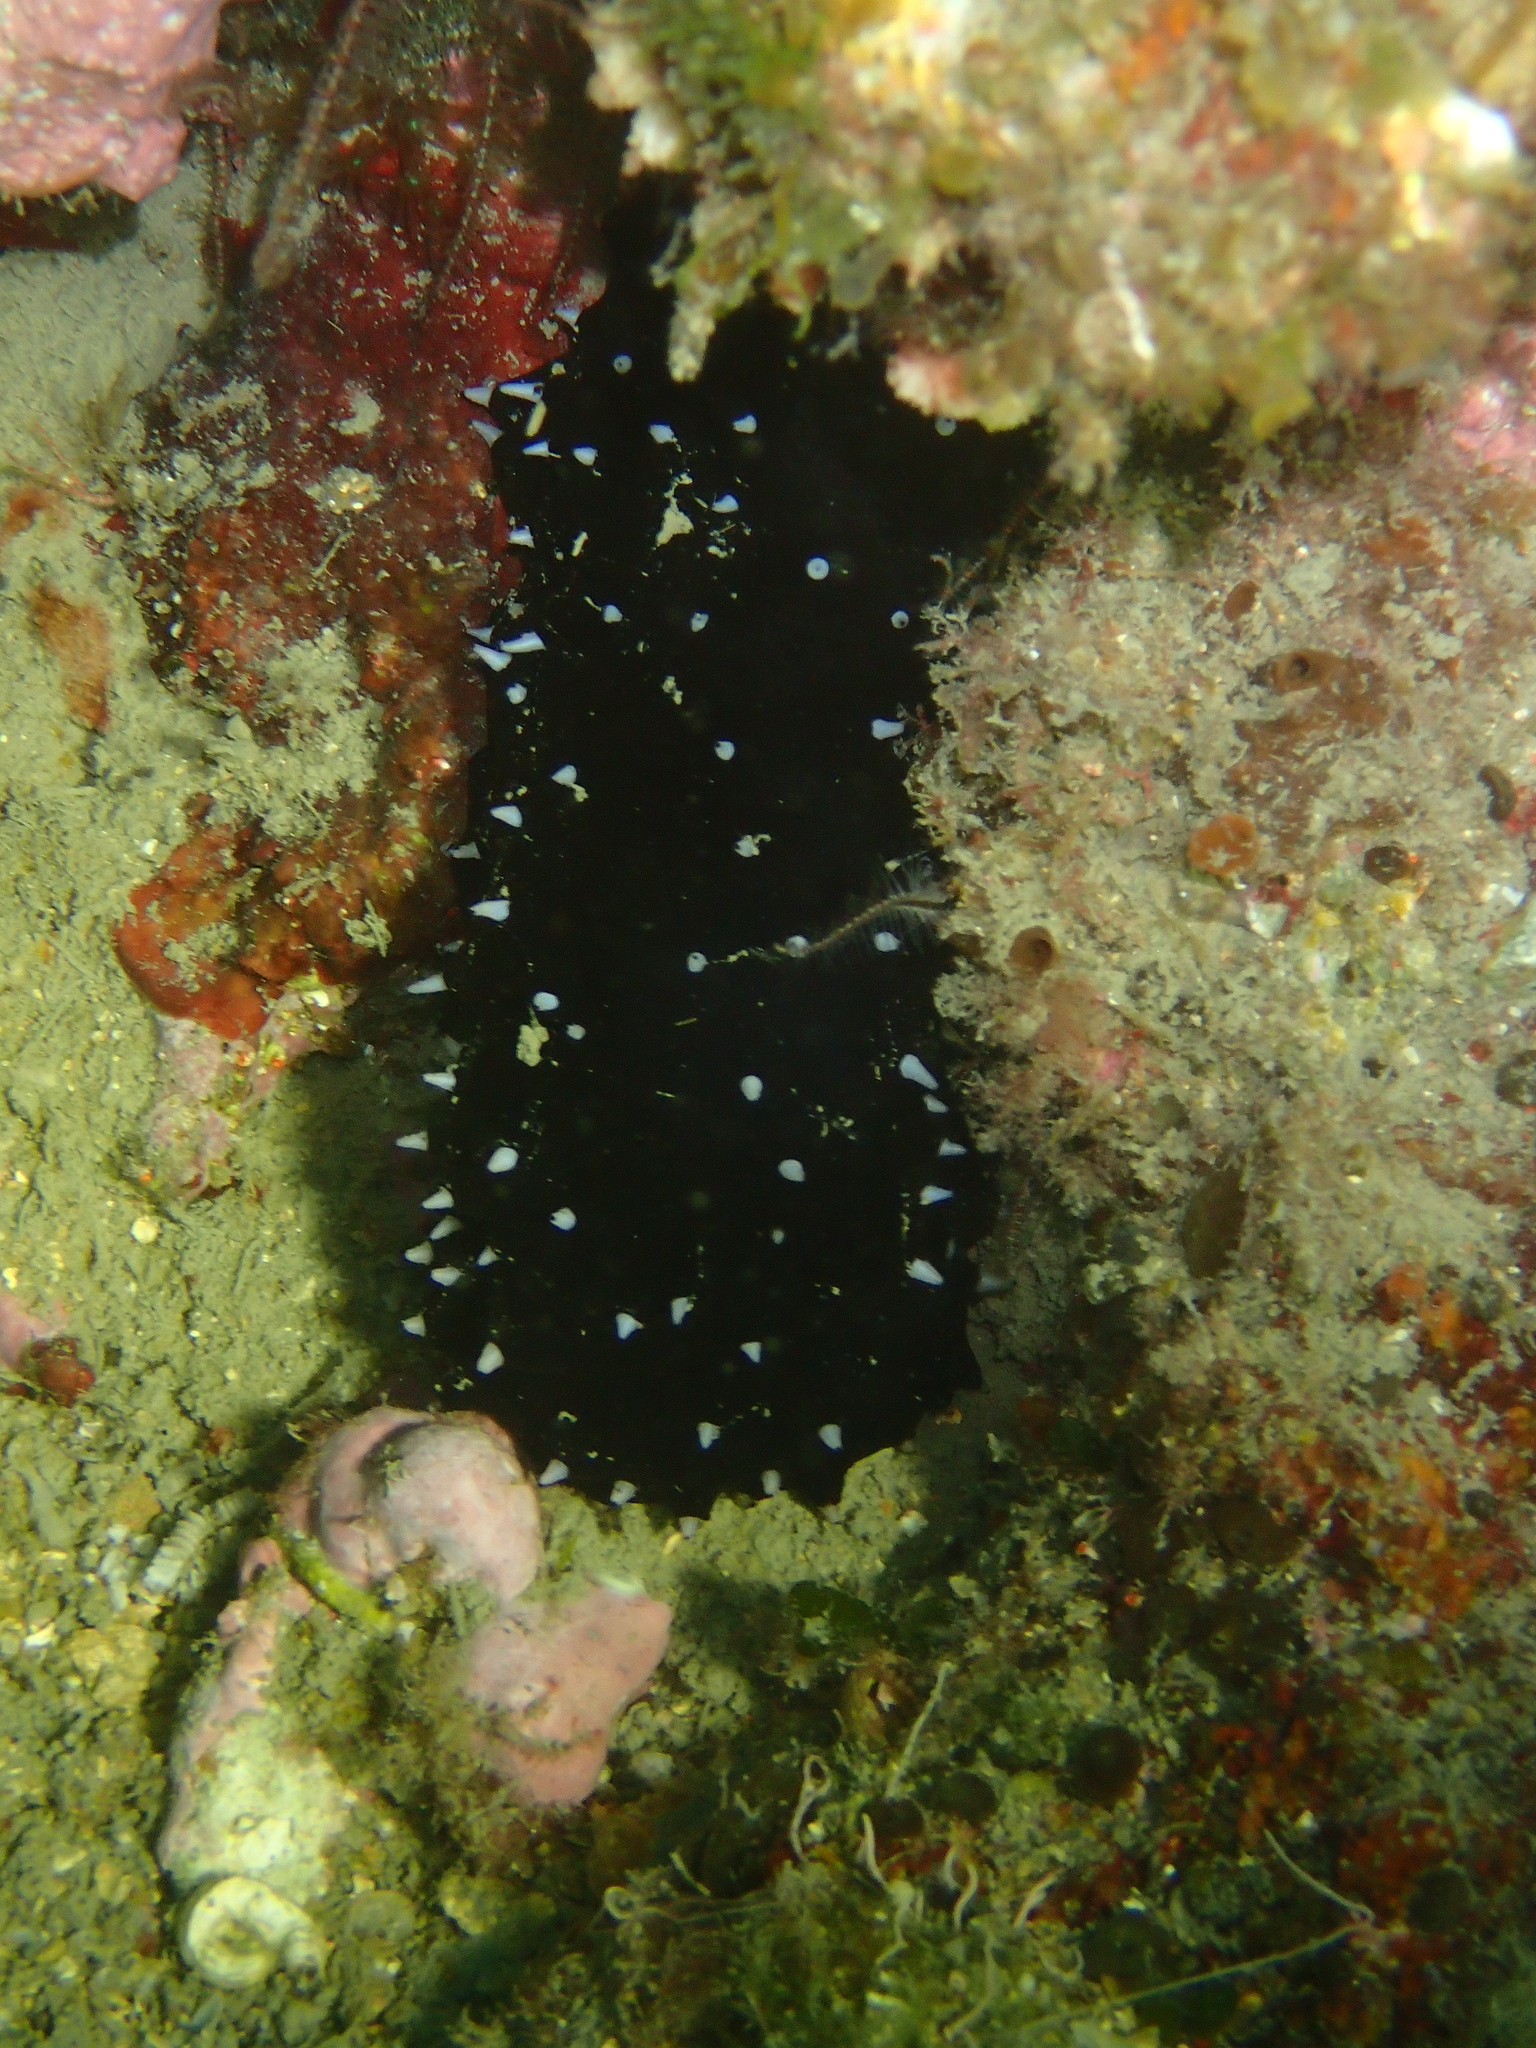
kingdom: Animalia
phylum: Echinodermata
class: Holothuroidea
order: Holothuriida
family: Holothuriidae
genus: Holothuria
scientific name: Holothuria forskali
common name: Black sea cucumber
